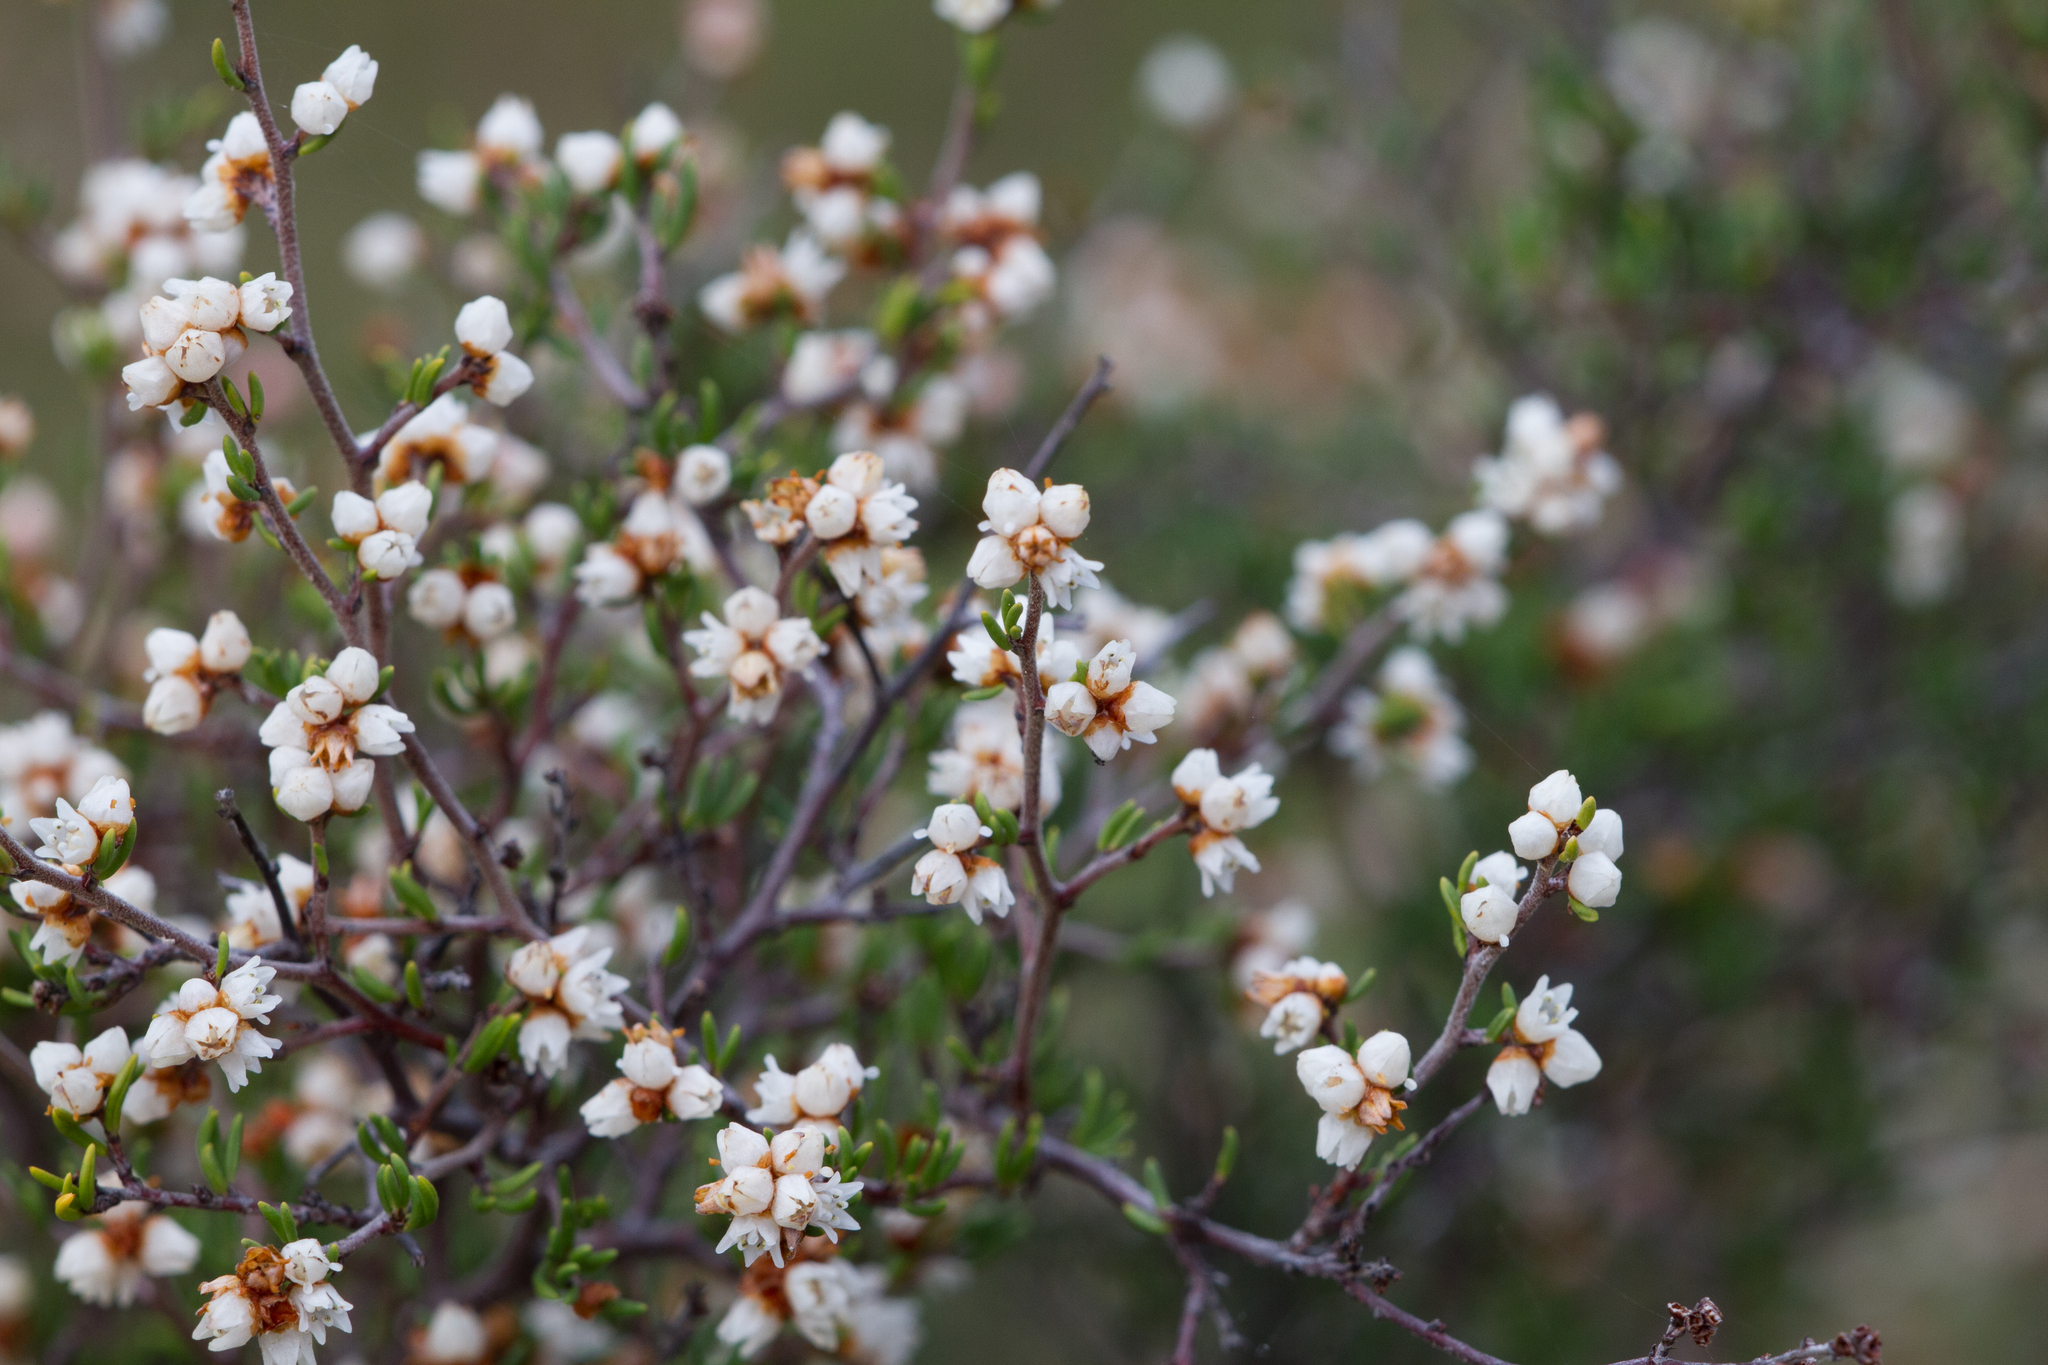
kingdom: Plantae
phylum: Tracheophyta
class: Magnoliopsida
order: Rosales
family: Rhamnaceae
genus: Cryptandra
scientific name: Cryptandra tomentosa
